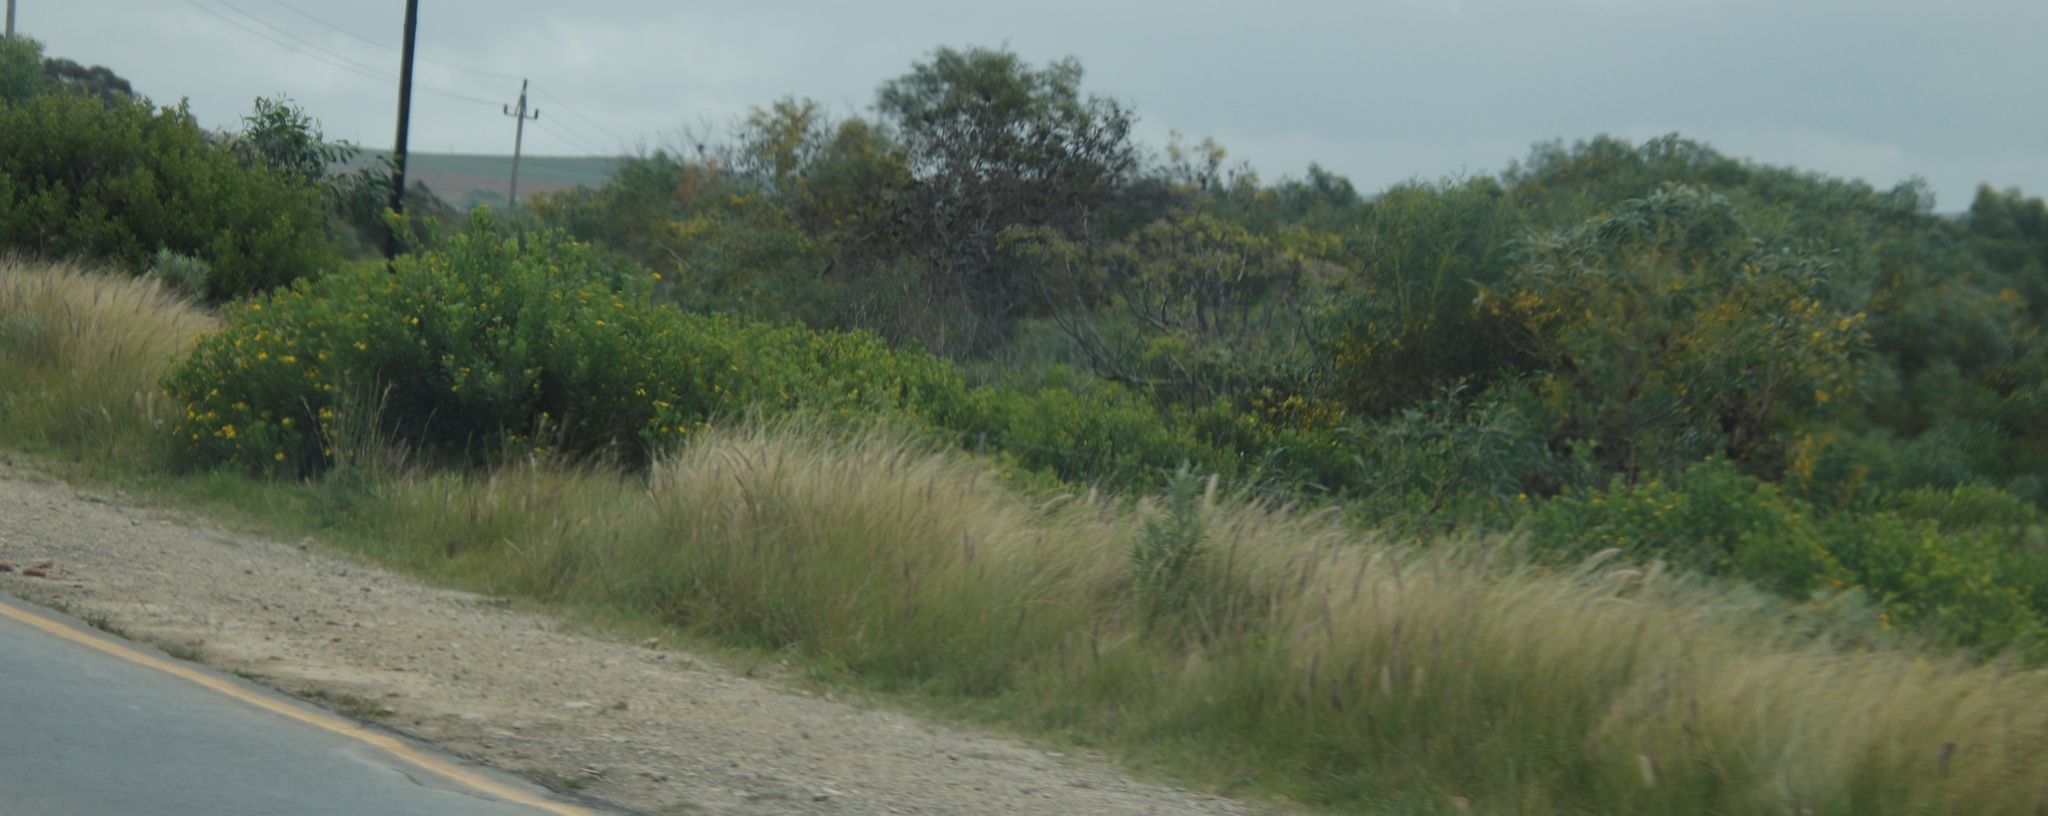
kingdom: Plantae
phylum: Tracheophyta
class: Liliopsida
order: Poales
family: Poaceae
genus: Cenchrus
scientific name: Cenchrus setaceus
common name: Crimson fountaingrass
